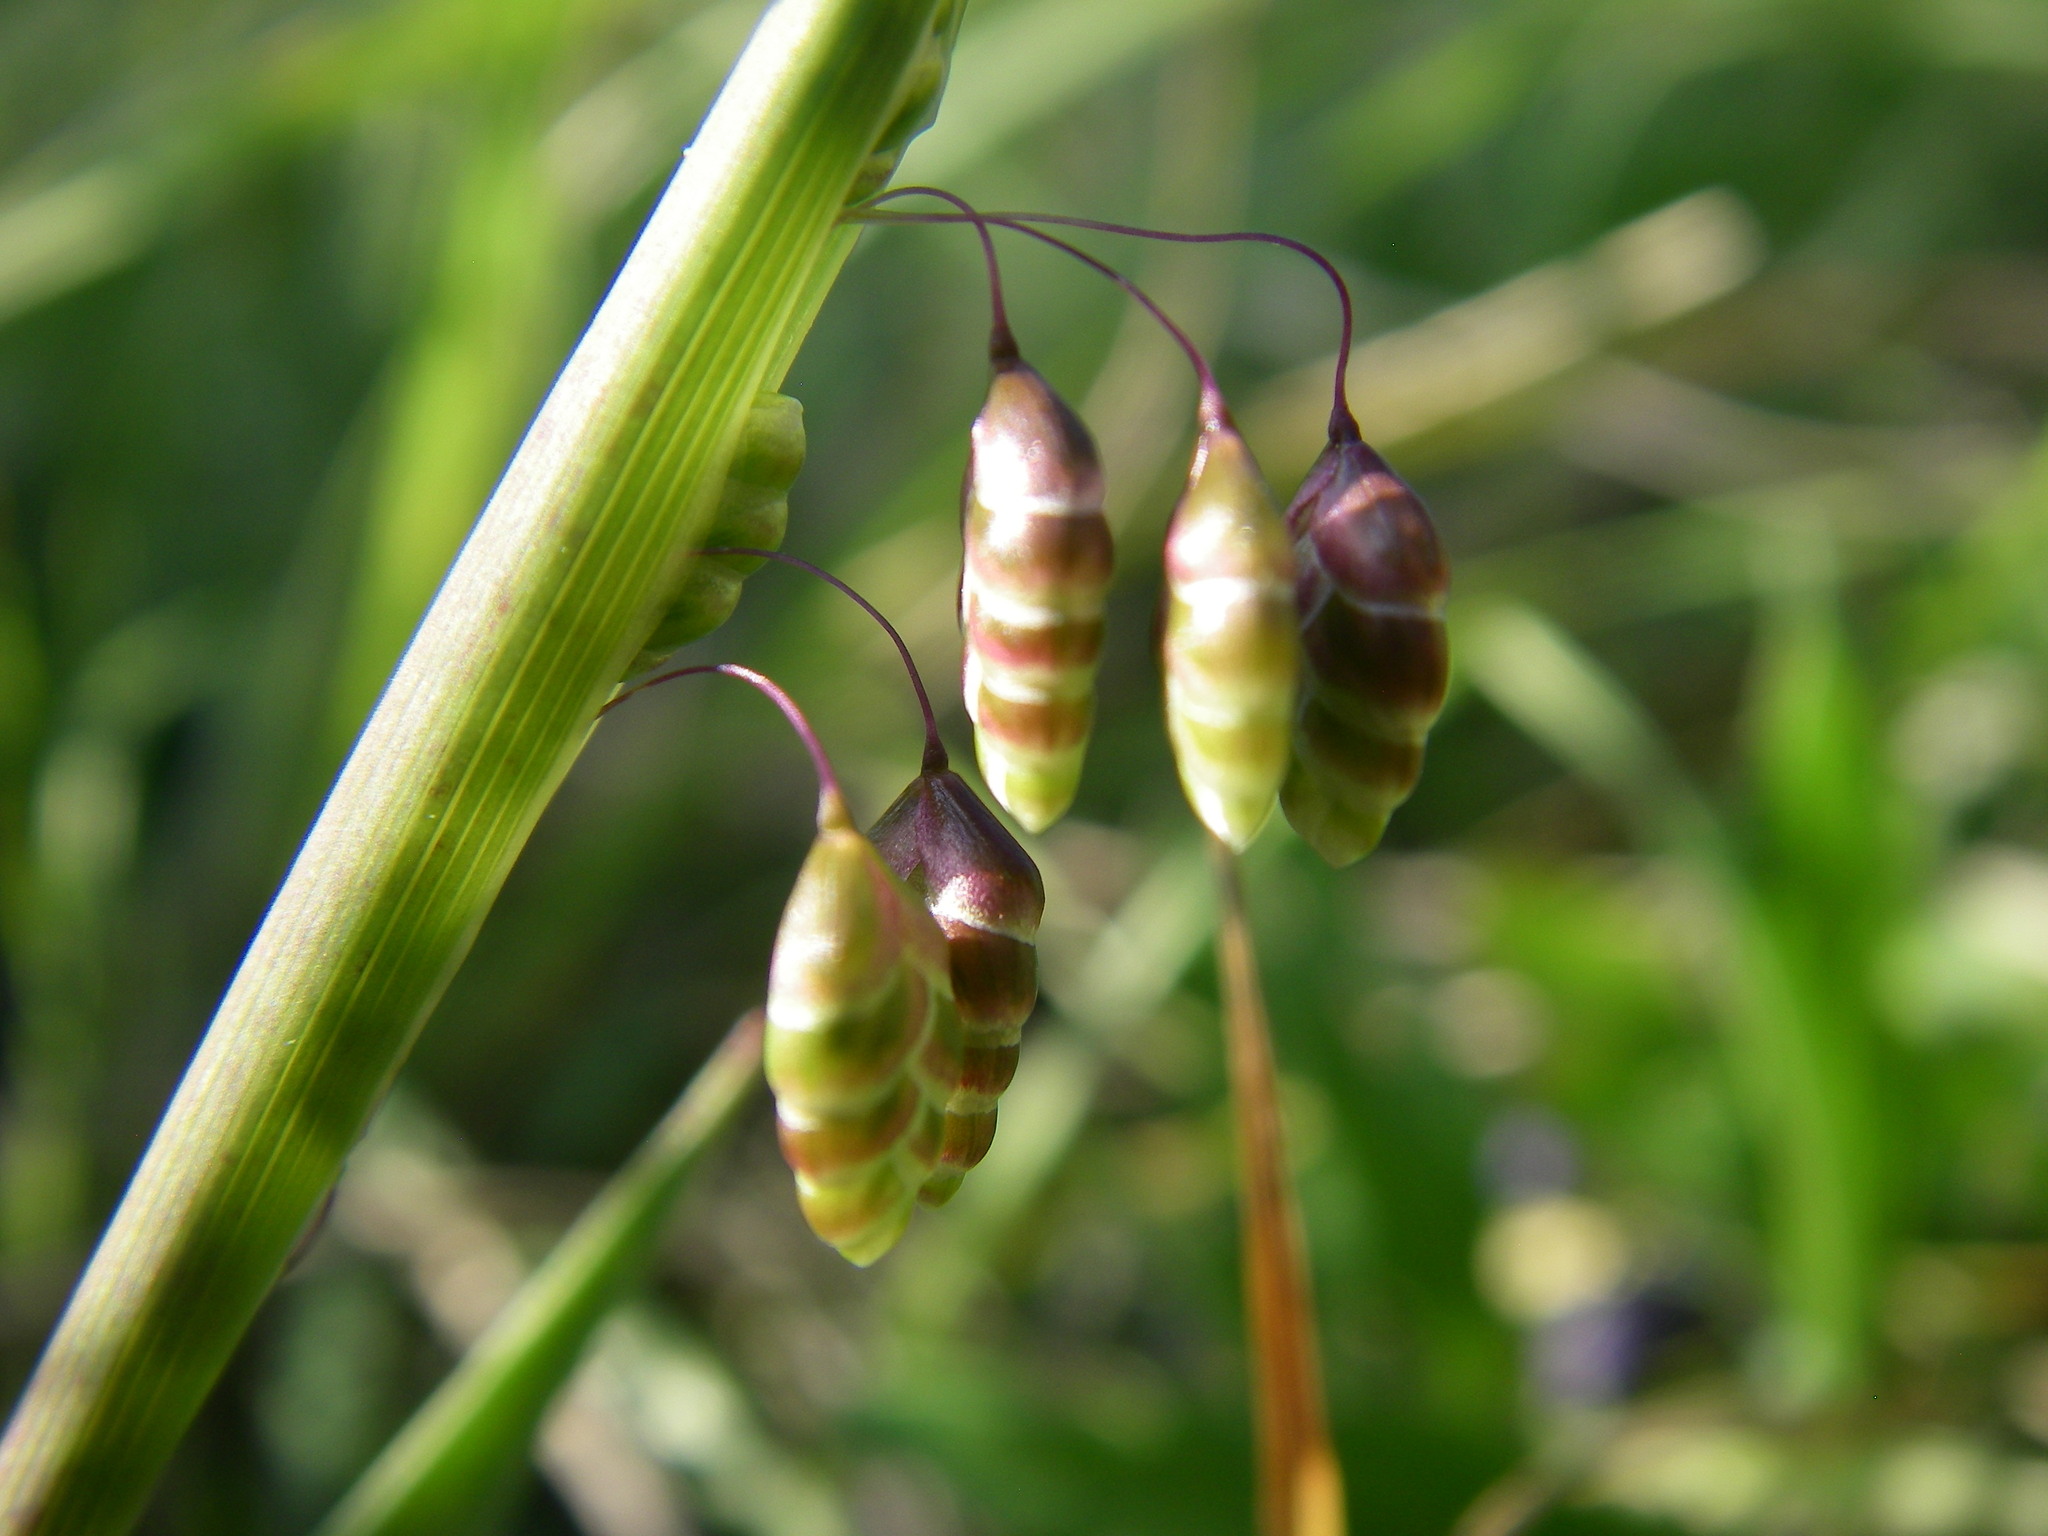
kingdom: Plantae
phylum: Tracheophyta
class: Liliopsida
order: Poales
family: Poaceae
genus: Briza
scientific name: Briza media
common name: Quaking grass
